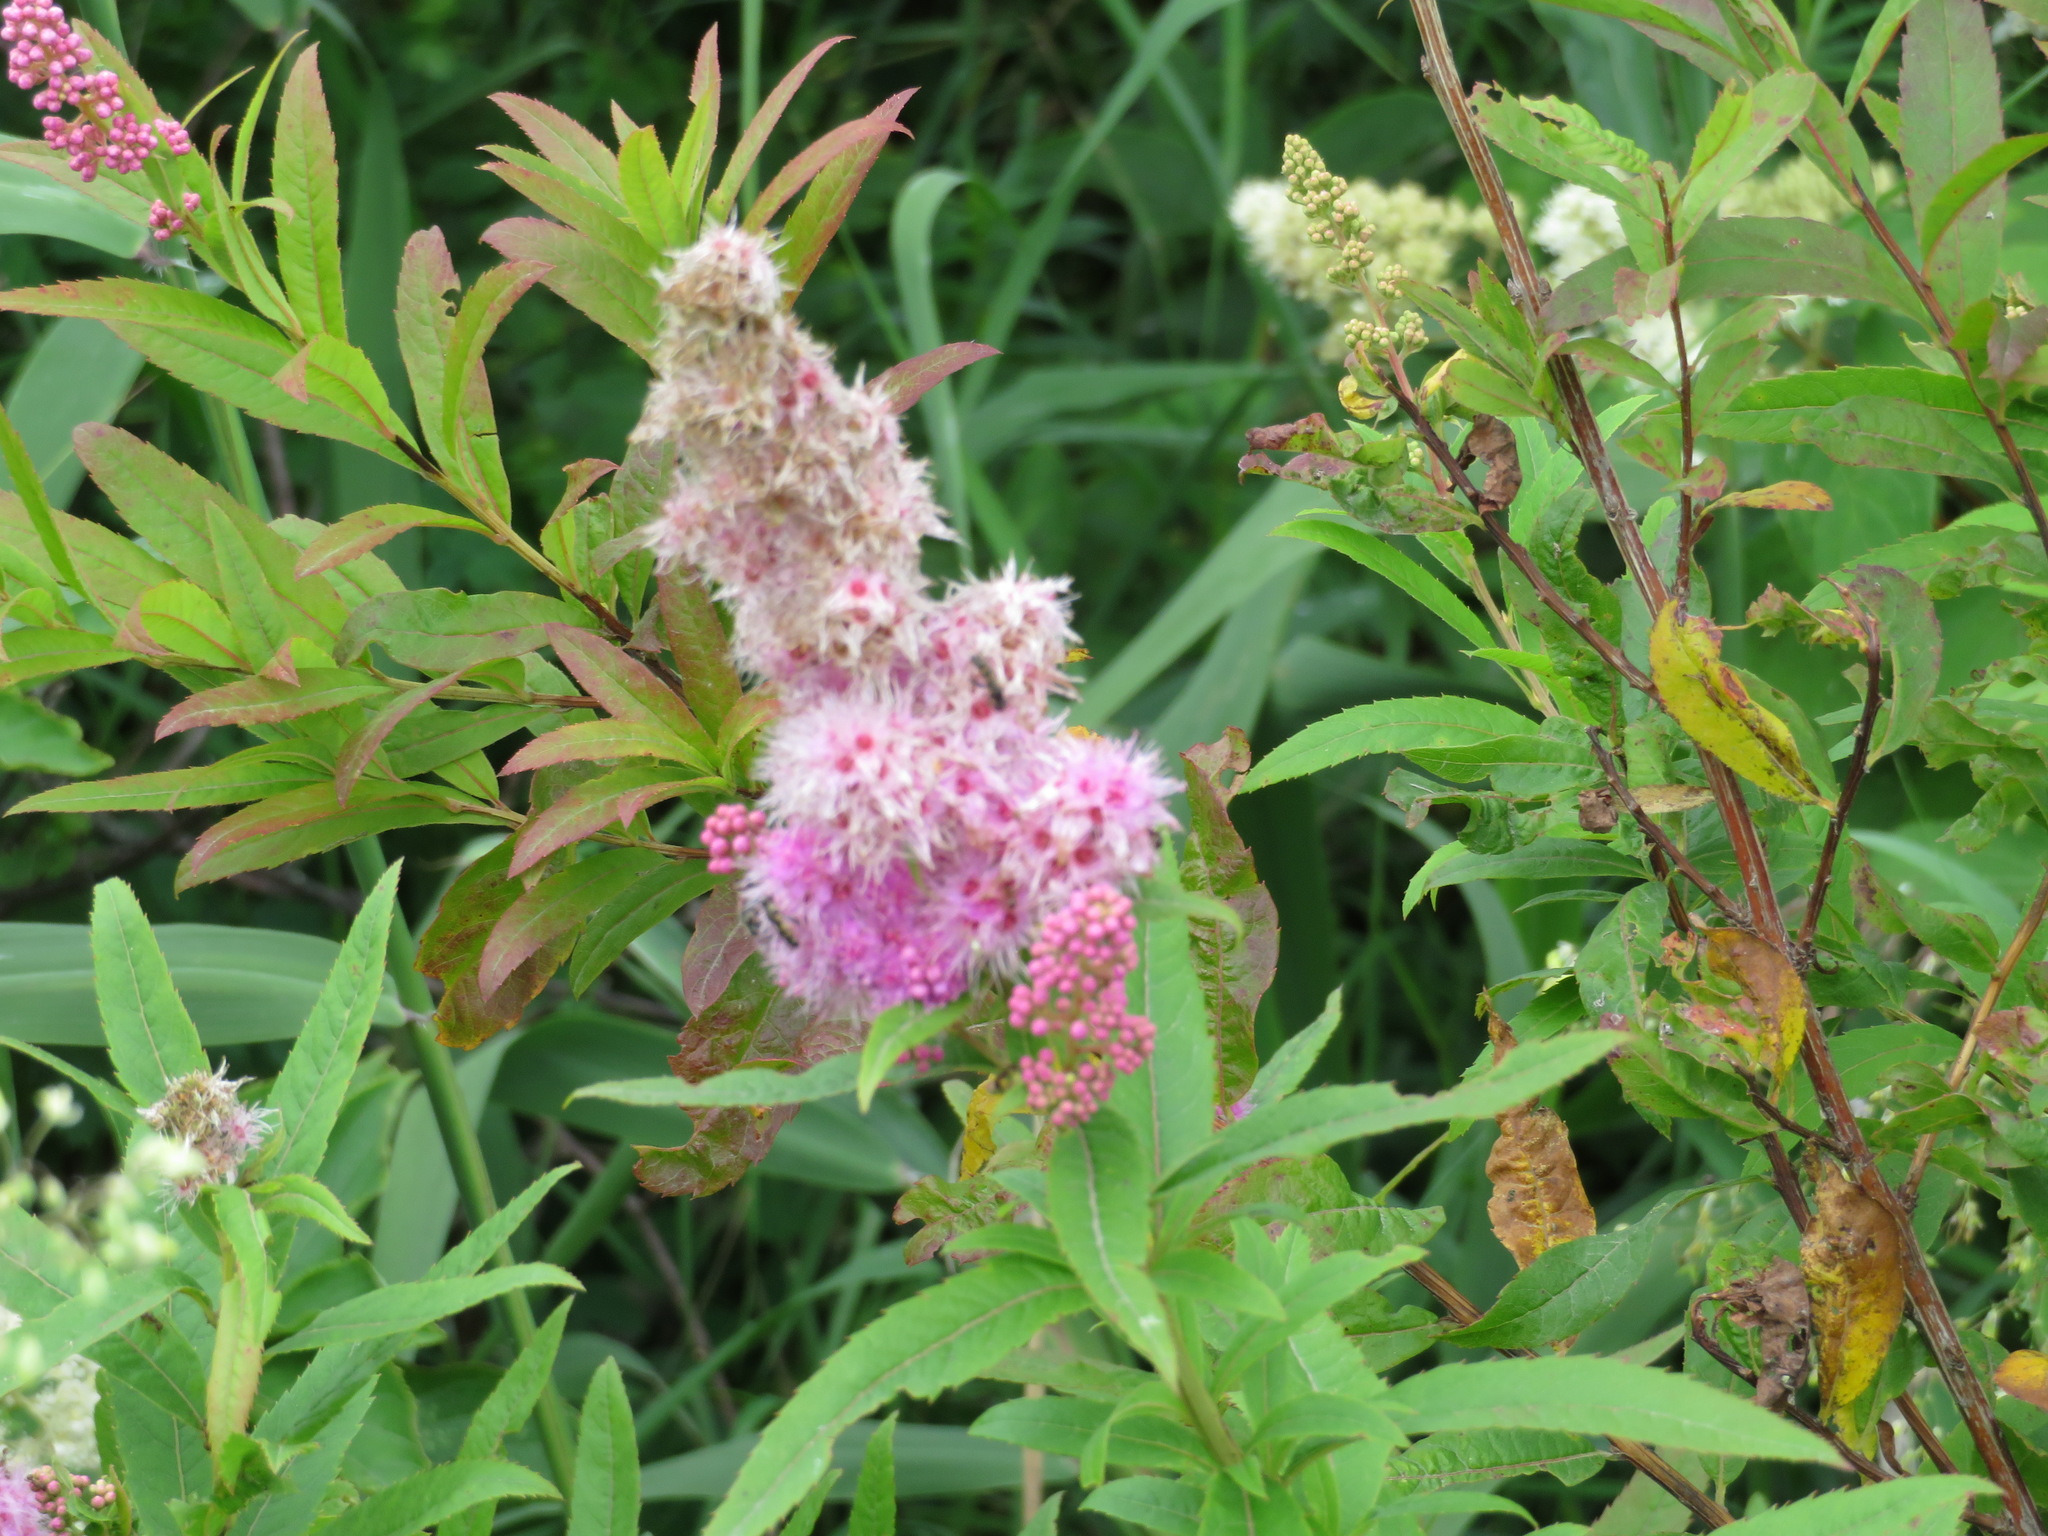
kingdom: Plantae
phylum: Tracheophyta
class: Magnoliopsida
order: Rosales
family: Rosaceae
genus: Spiraea
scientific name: Spiraea salicifolia
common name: Bridewort
